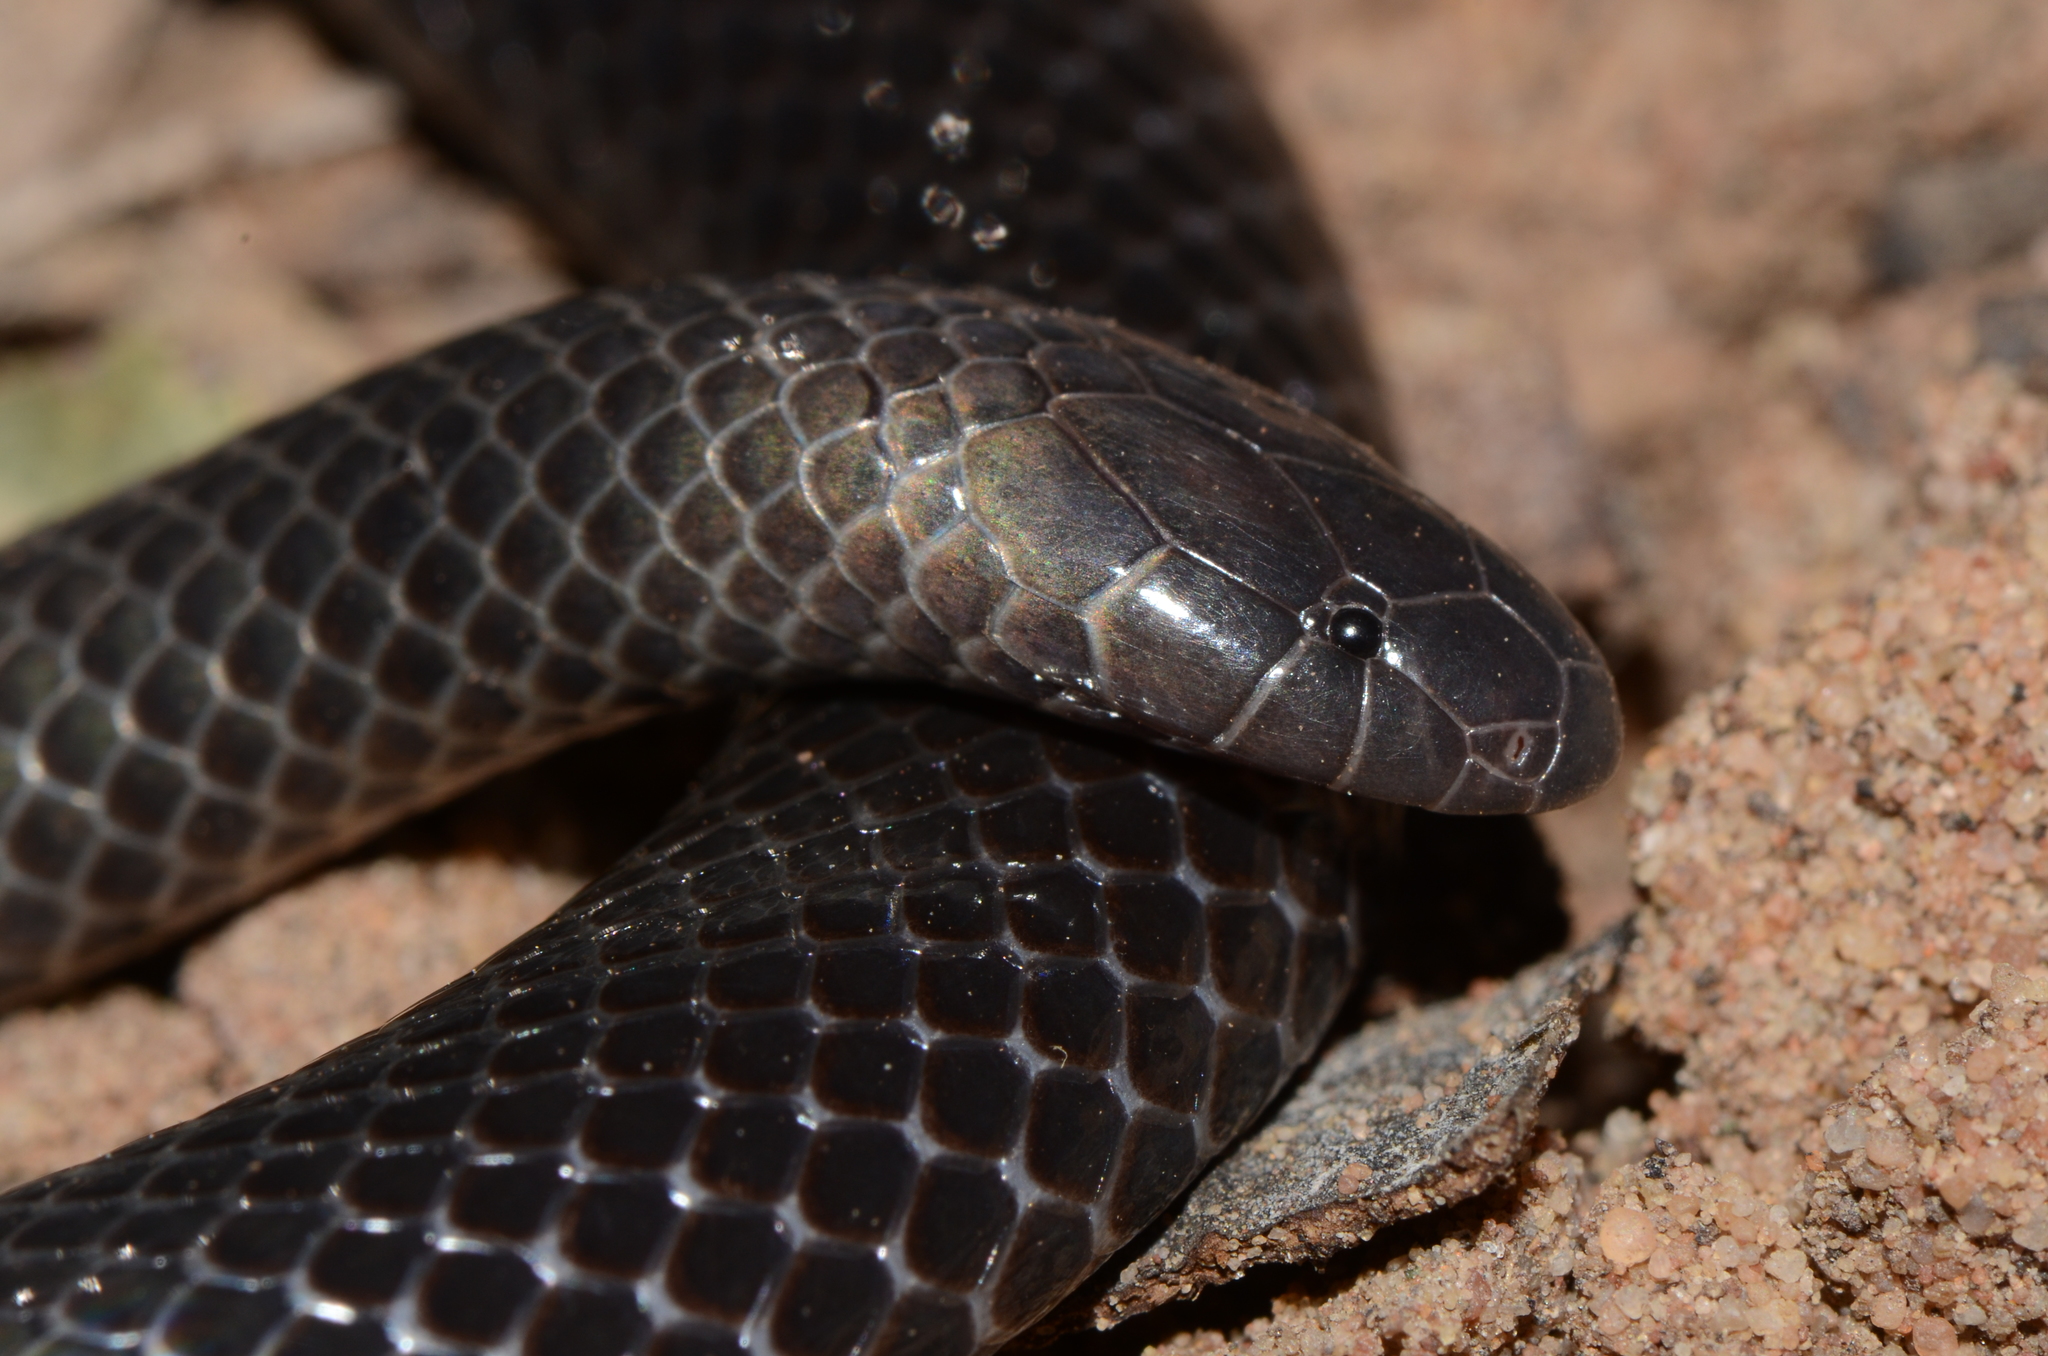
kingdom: Animalia
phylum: Chordata
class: Squamata
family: Atractaspididae
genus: Amblyodipsas
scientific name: Amblyodipsas microphthalma
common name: Eastern purple-glossed snake
